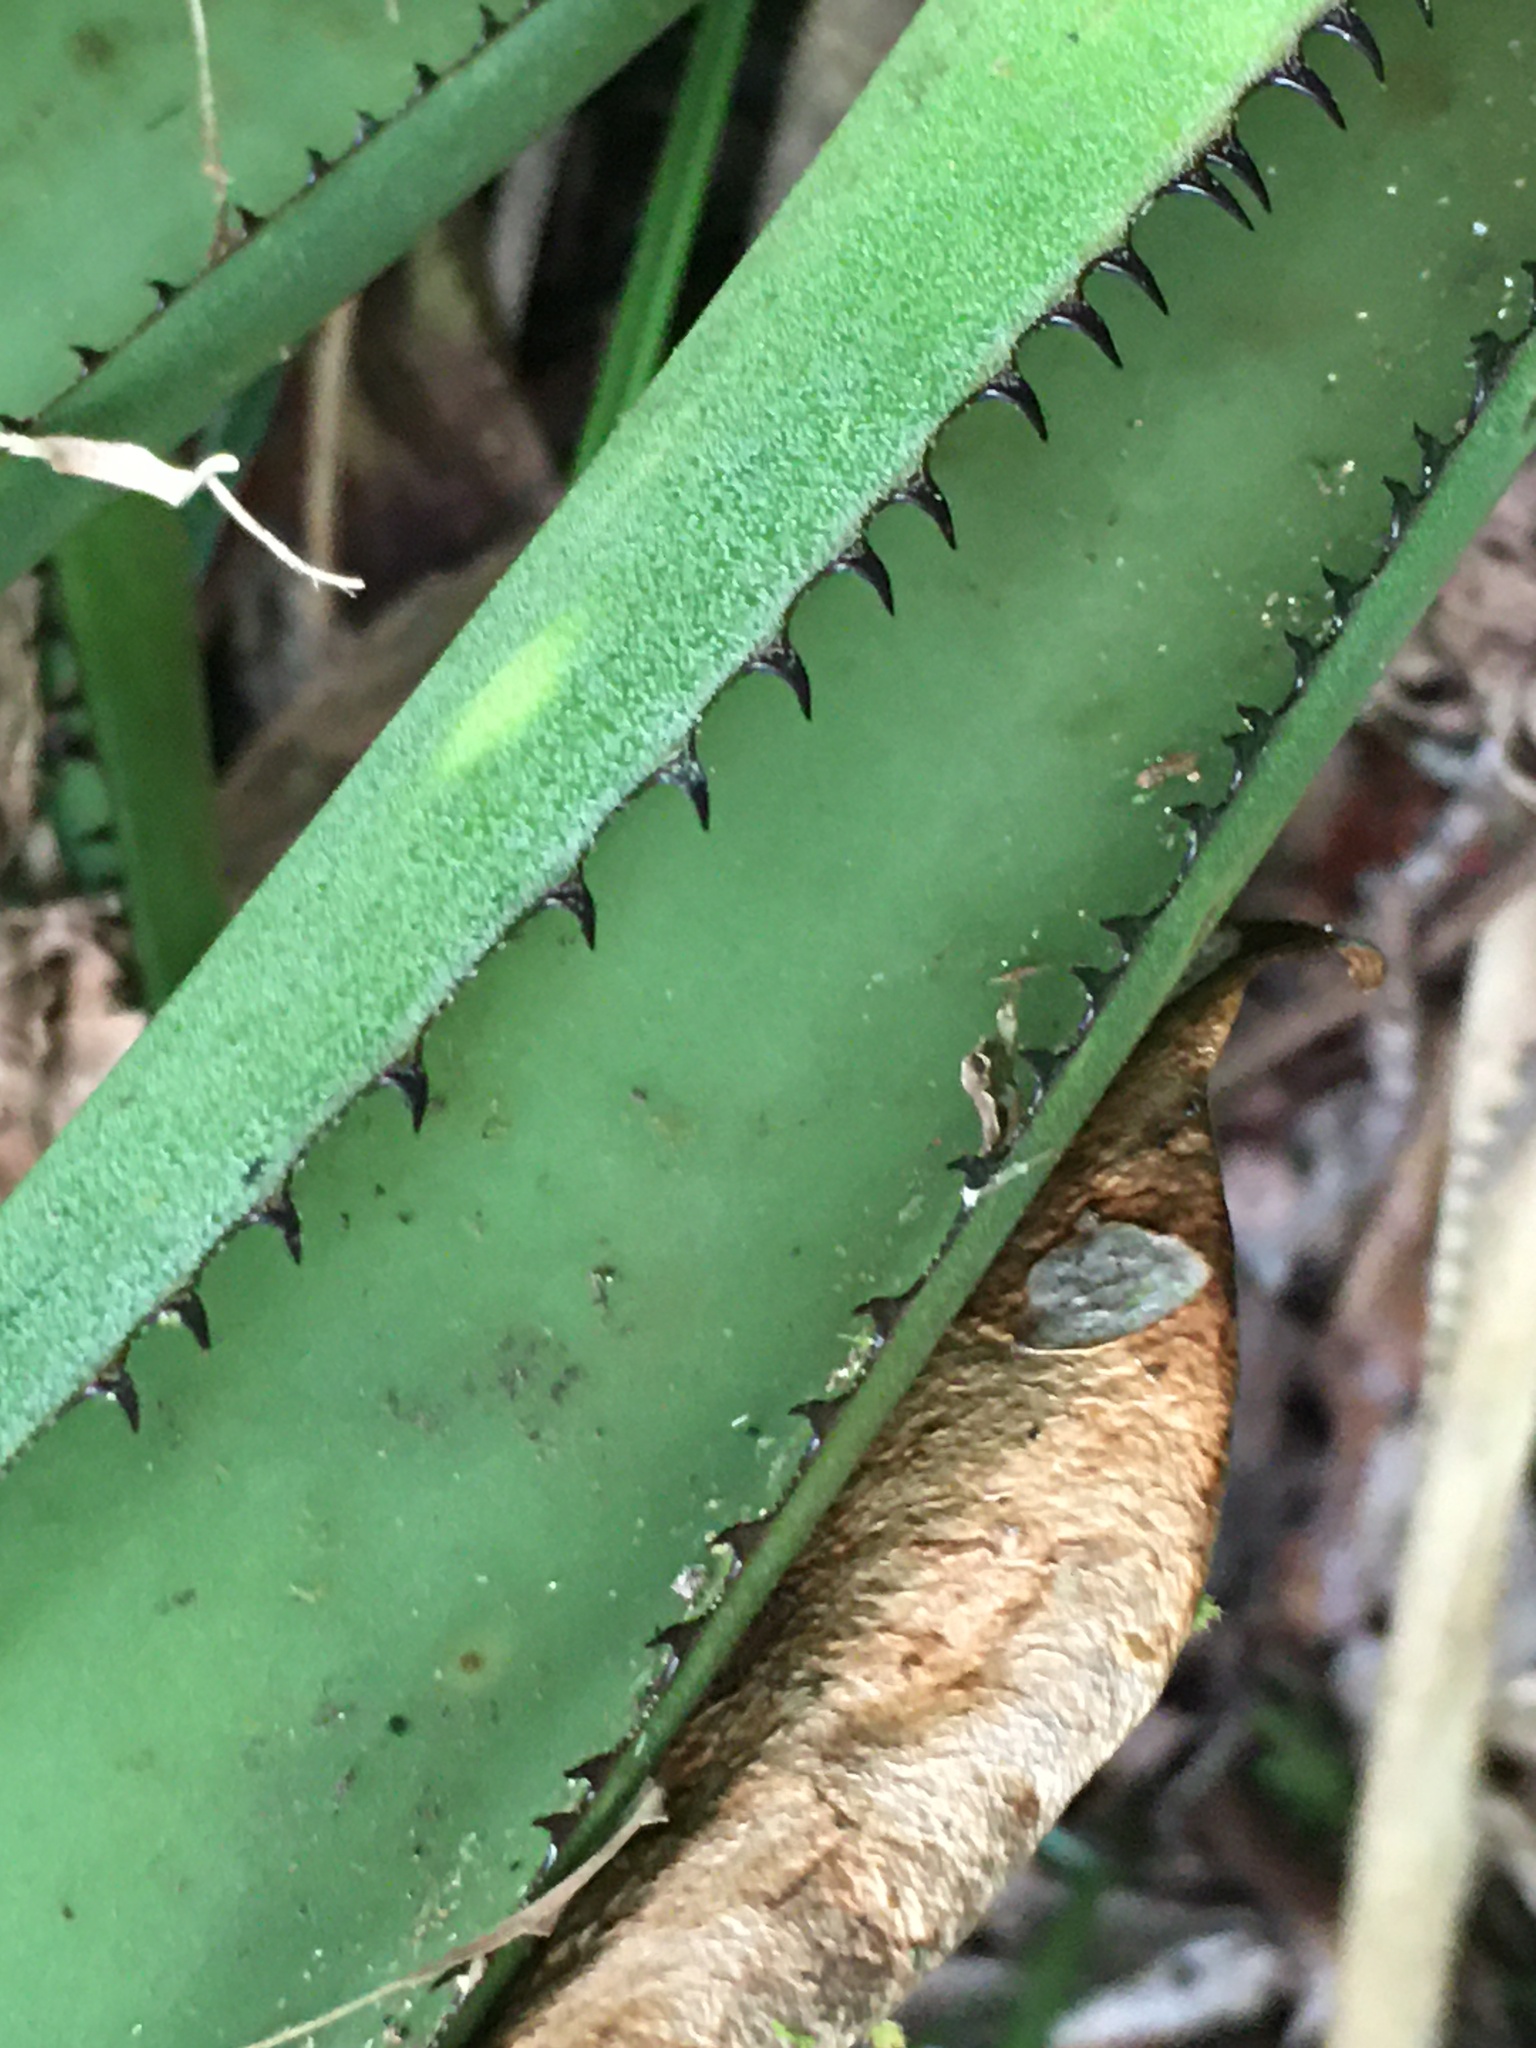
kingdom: Plantae
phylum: Tracheophyta
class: Liliopsida
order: Poales
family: Bromeliaceae
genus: Aechmea
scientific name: Aechmea costantinii
